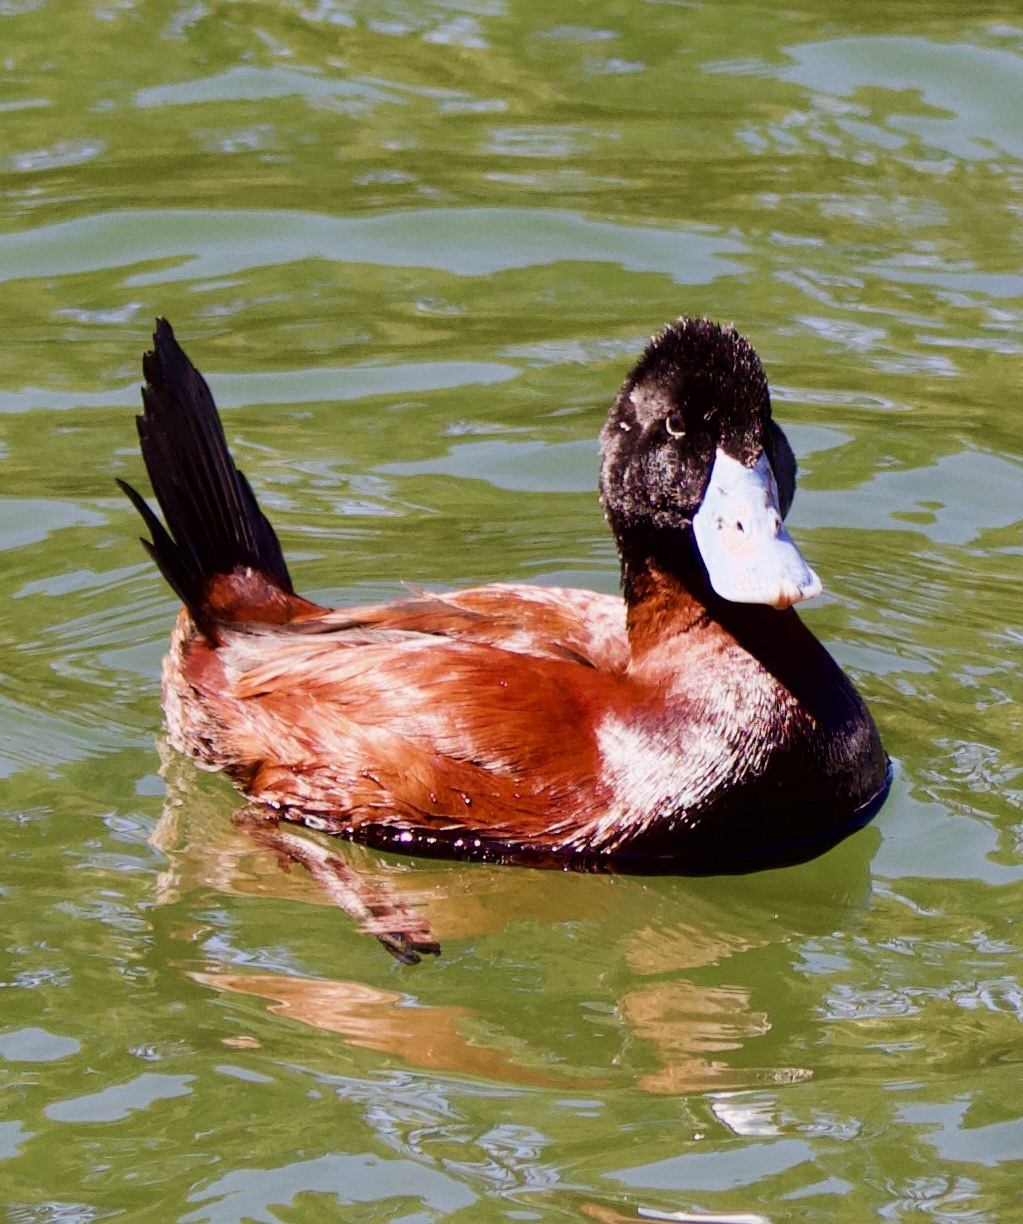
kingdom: Animalia
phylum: Chordata
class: Aves
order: Anseriformes
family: Anatidae
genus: Oxyura
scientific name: Oxyura ferruginea
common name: Andean duck
